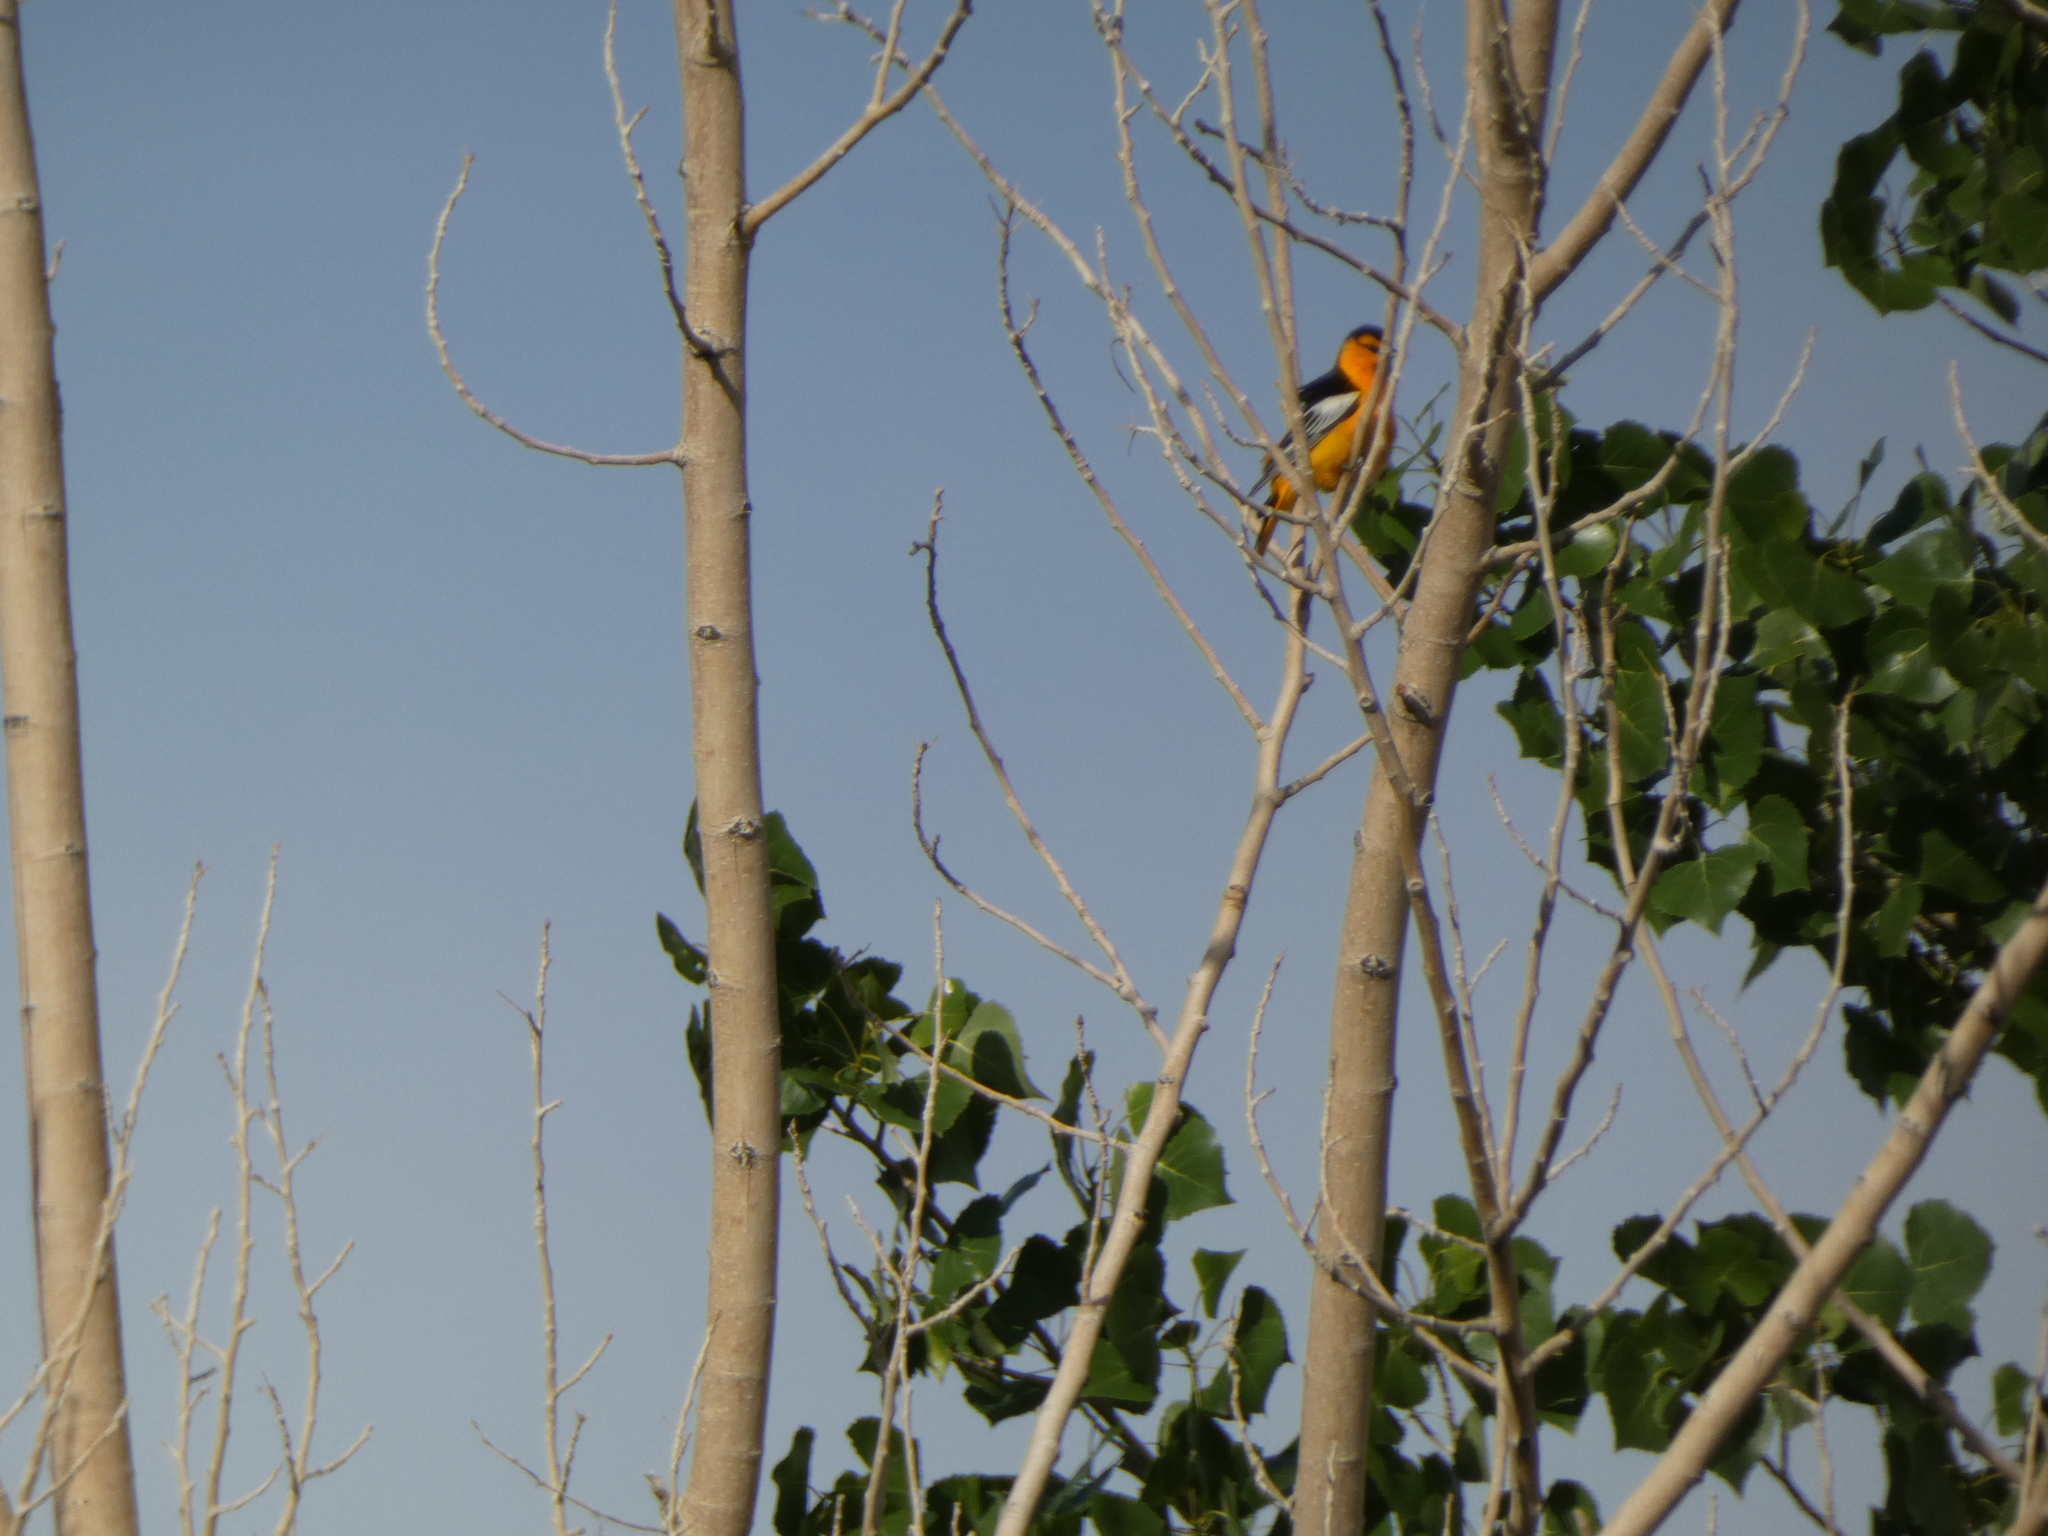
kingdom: Animalia
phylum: Chordata
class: Aves
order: Passeriformes
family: Icteridae
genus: Icterus
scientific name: Icterus bullockii
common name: Bullock's oriole
